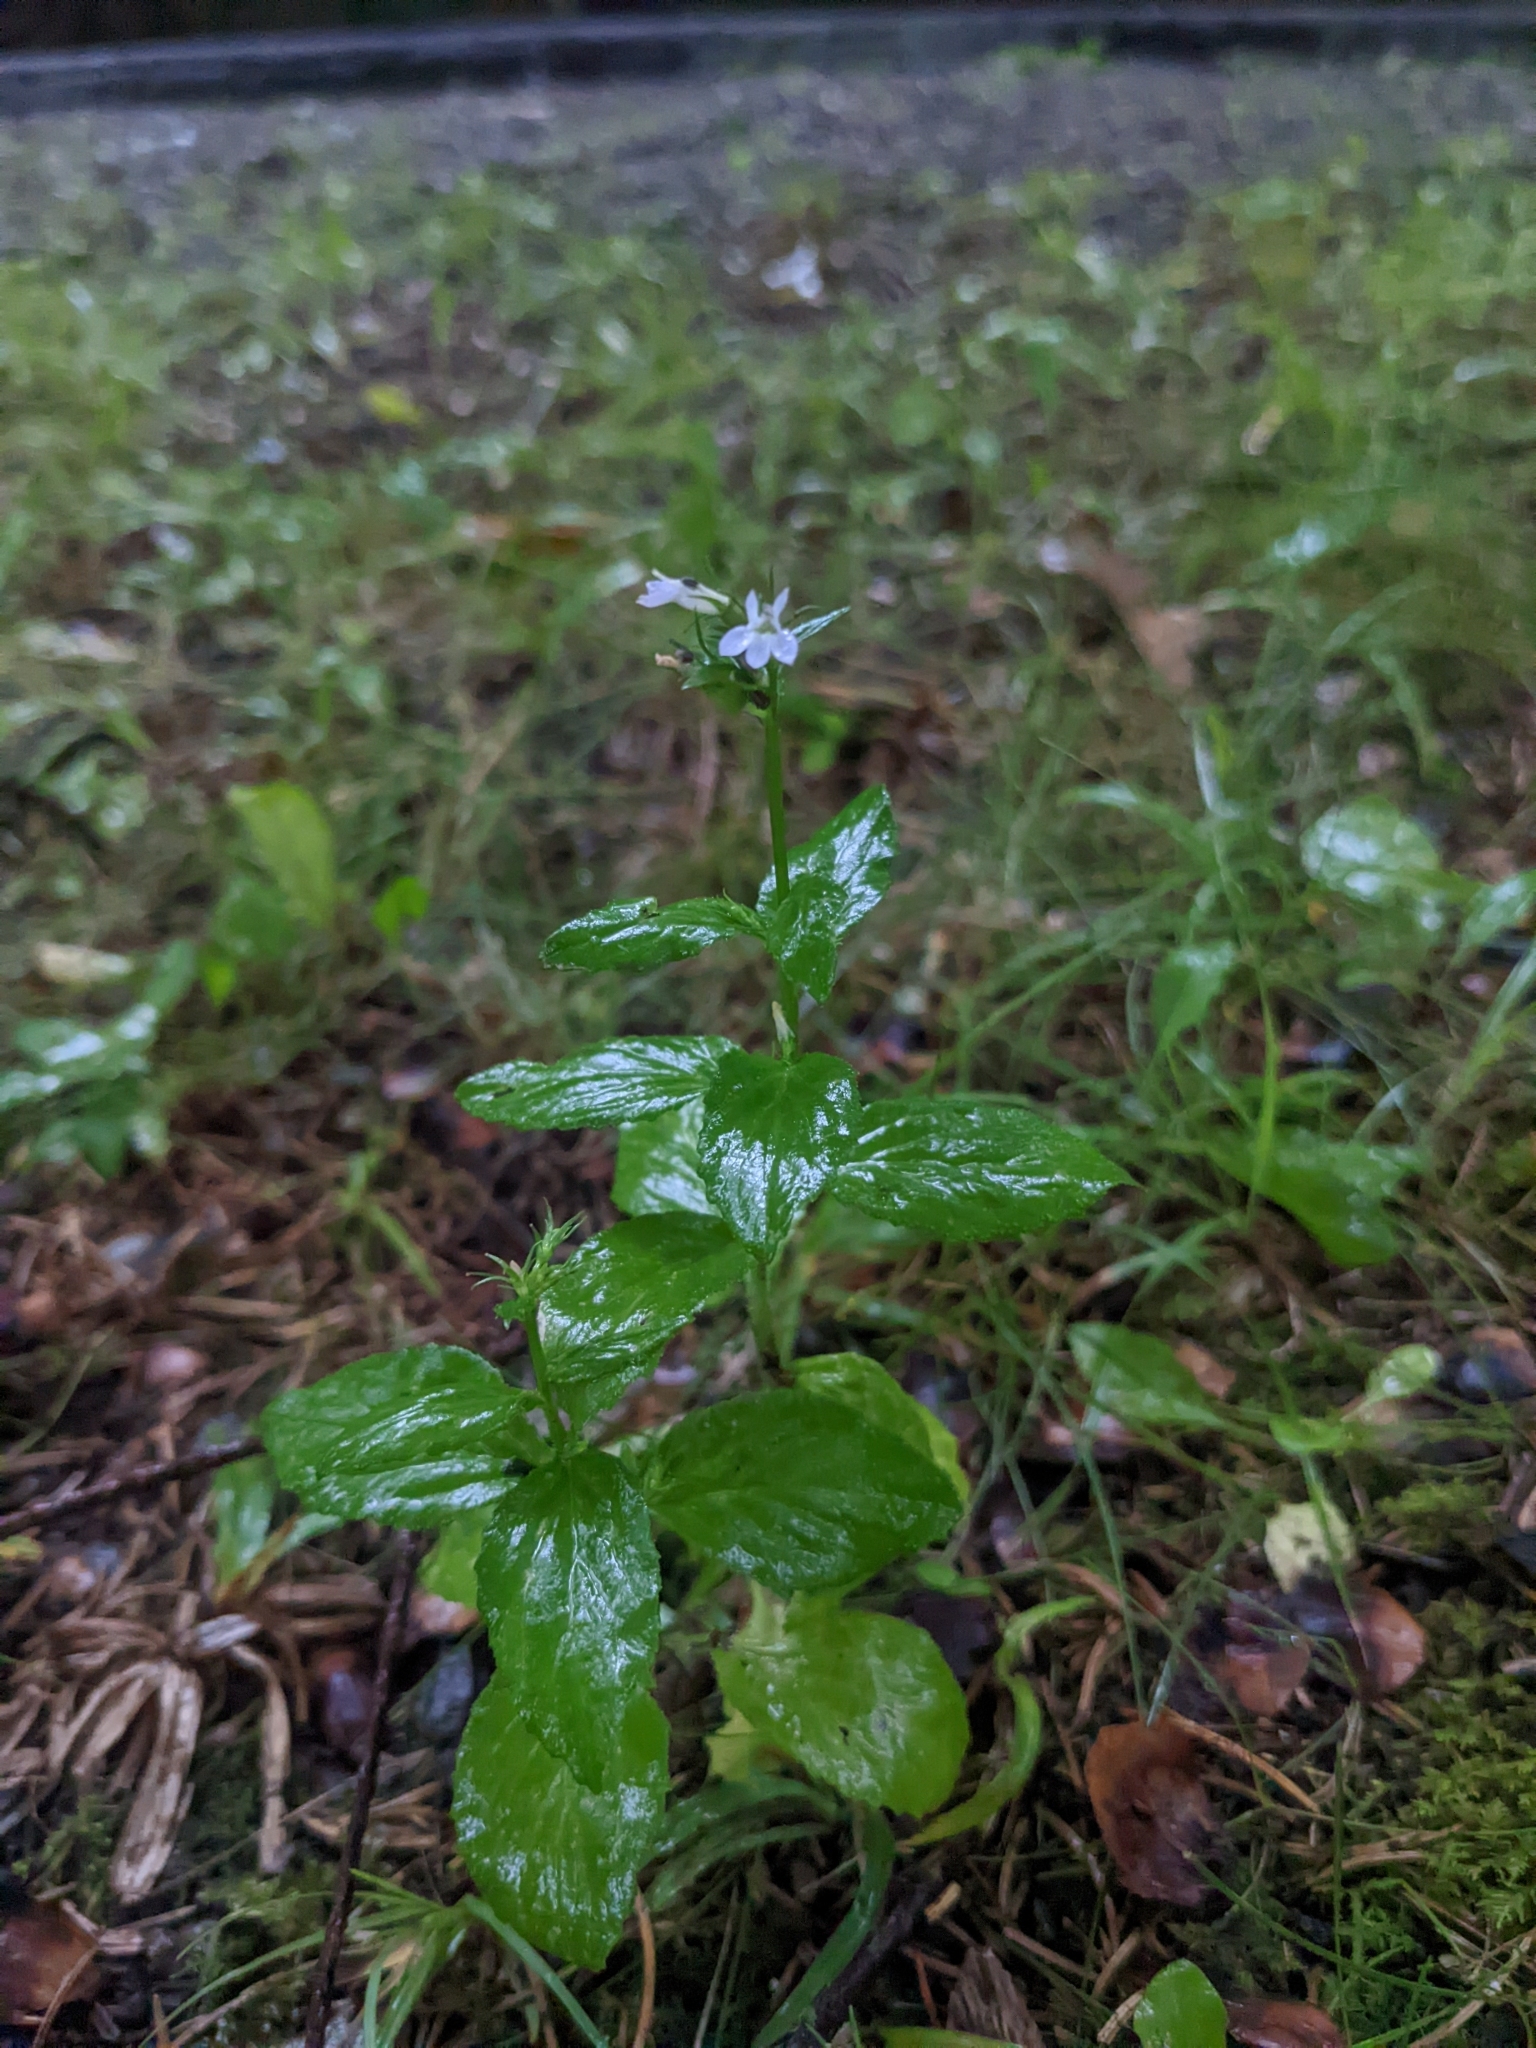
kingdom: Plantae
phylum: Tracheophyta
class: Magnoliopsida
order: Asterales
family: Campanulaceae
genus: Lobelia
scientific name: Lobelia inflata
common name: Indian tobacco
